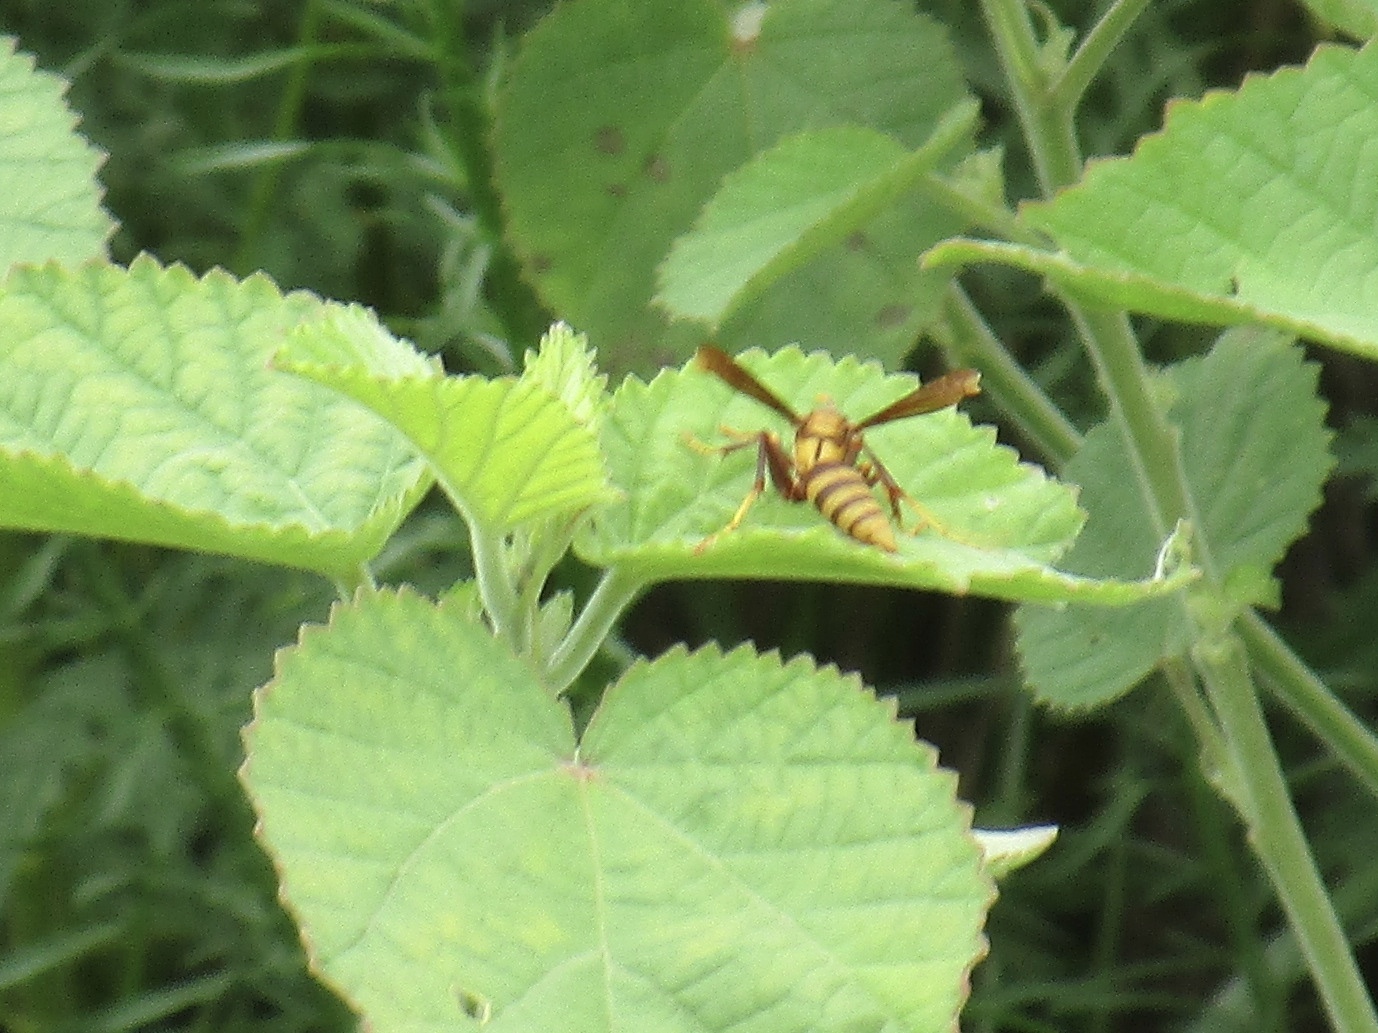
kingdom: Animalia
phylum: Arthropoda
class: Insecta
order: Hymenoptera
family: Eumenidae
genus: Polistes
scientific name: Polistes major
